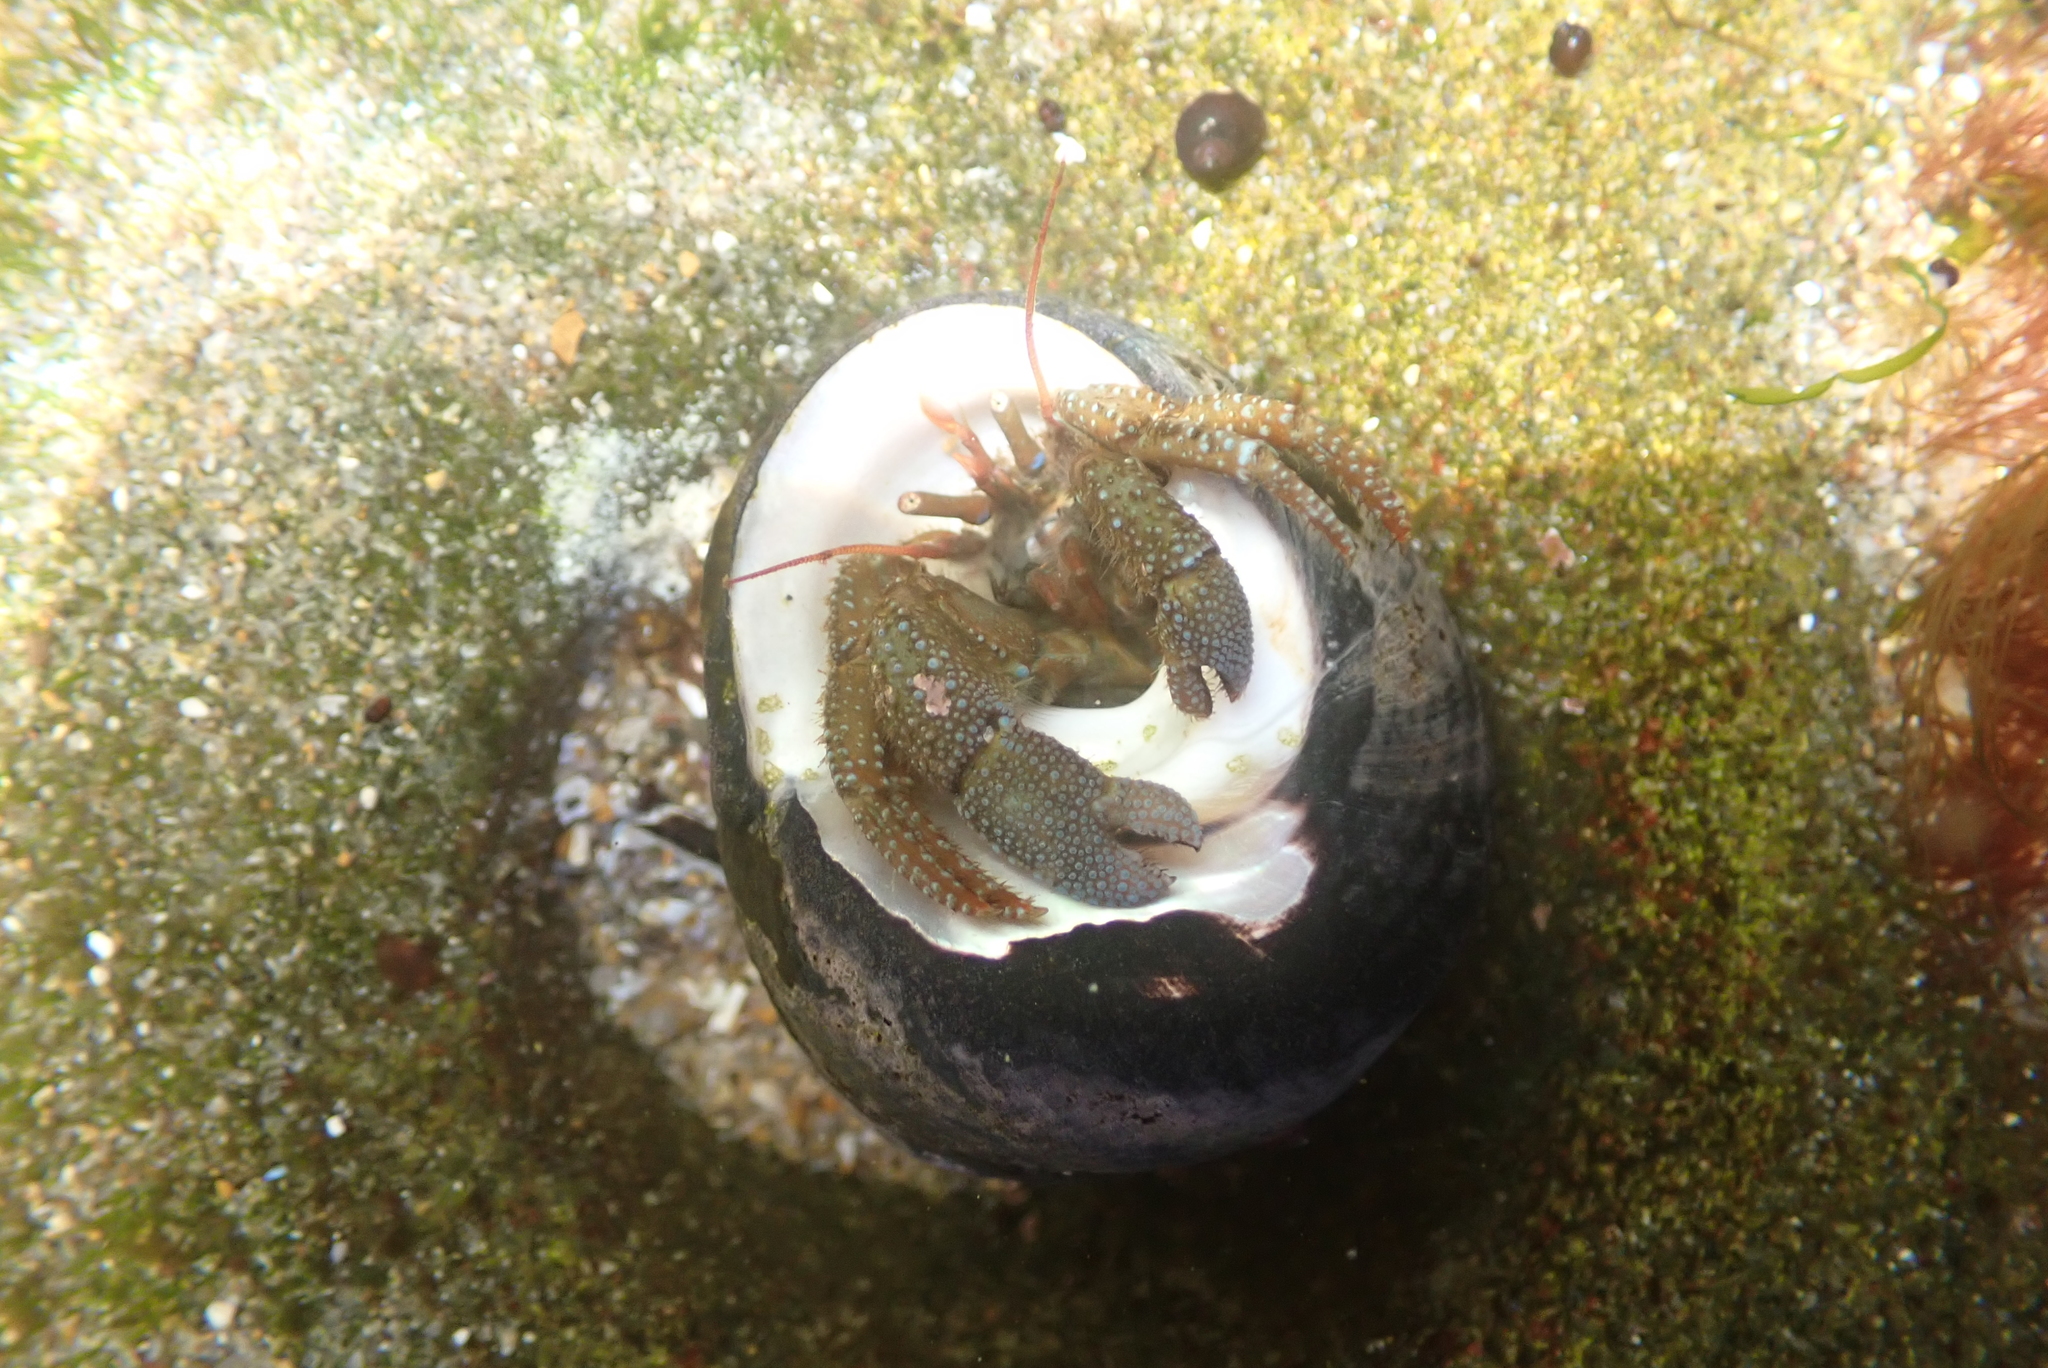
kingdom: Animalia
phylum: Arthropoda
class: Malacostraca
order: Decapoda
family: Paguridae
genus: Pagurus
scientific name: Pagurus granosimanus
